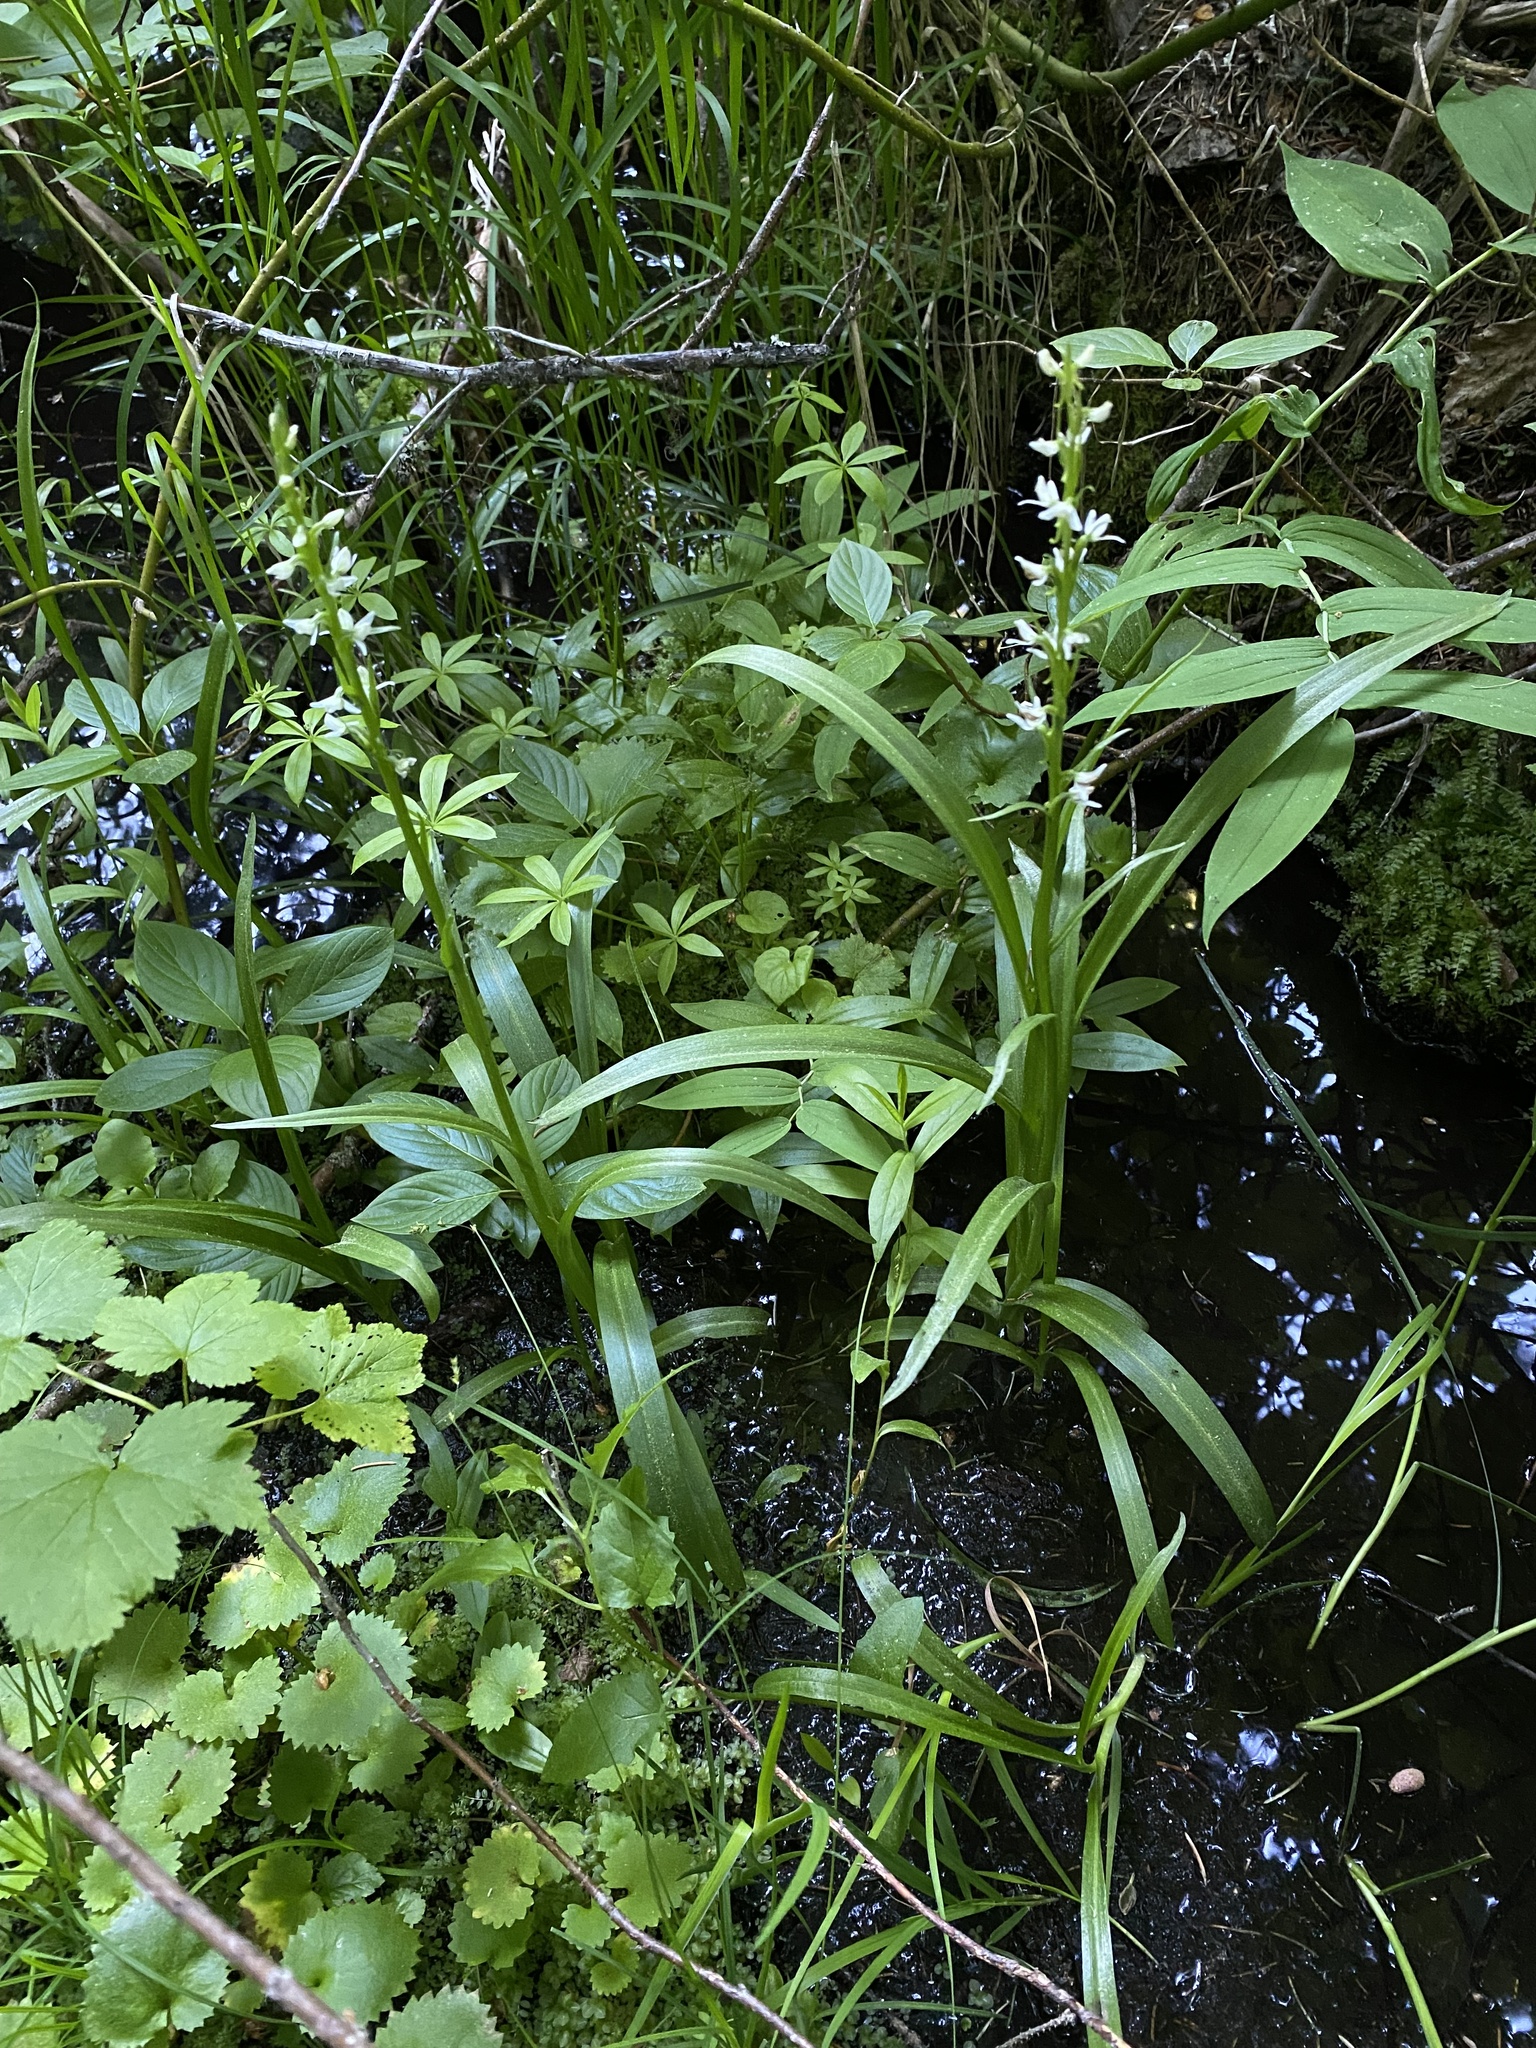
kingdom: Plantae
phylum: Tracheophyta
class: Liliopsida
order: Asparagales
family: Orchidaceae
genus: Platanthera
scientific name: Platanthera dilatata
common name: Bog candles
